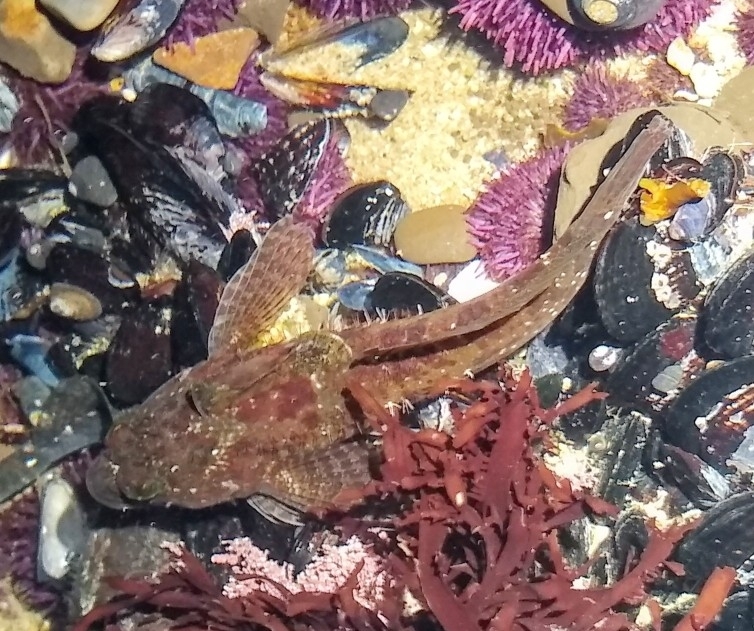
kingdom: Animalia
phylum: Chordata
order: Scorpaeniformes
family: Cottidae
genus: Clinocottus
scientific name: Clinocottus analis
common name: Woolly sculpin
